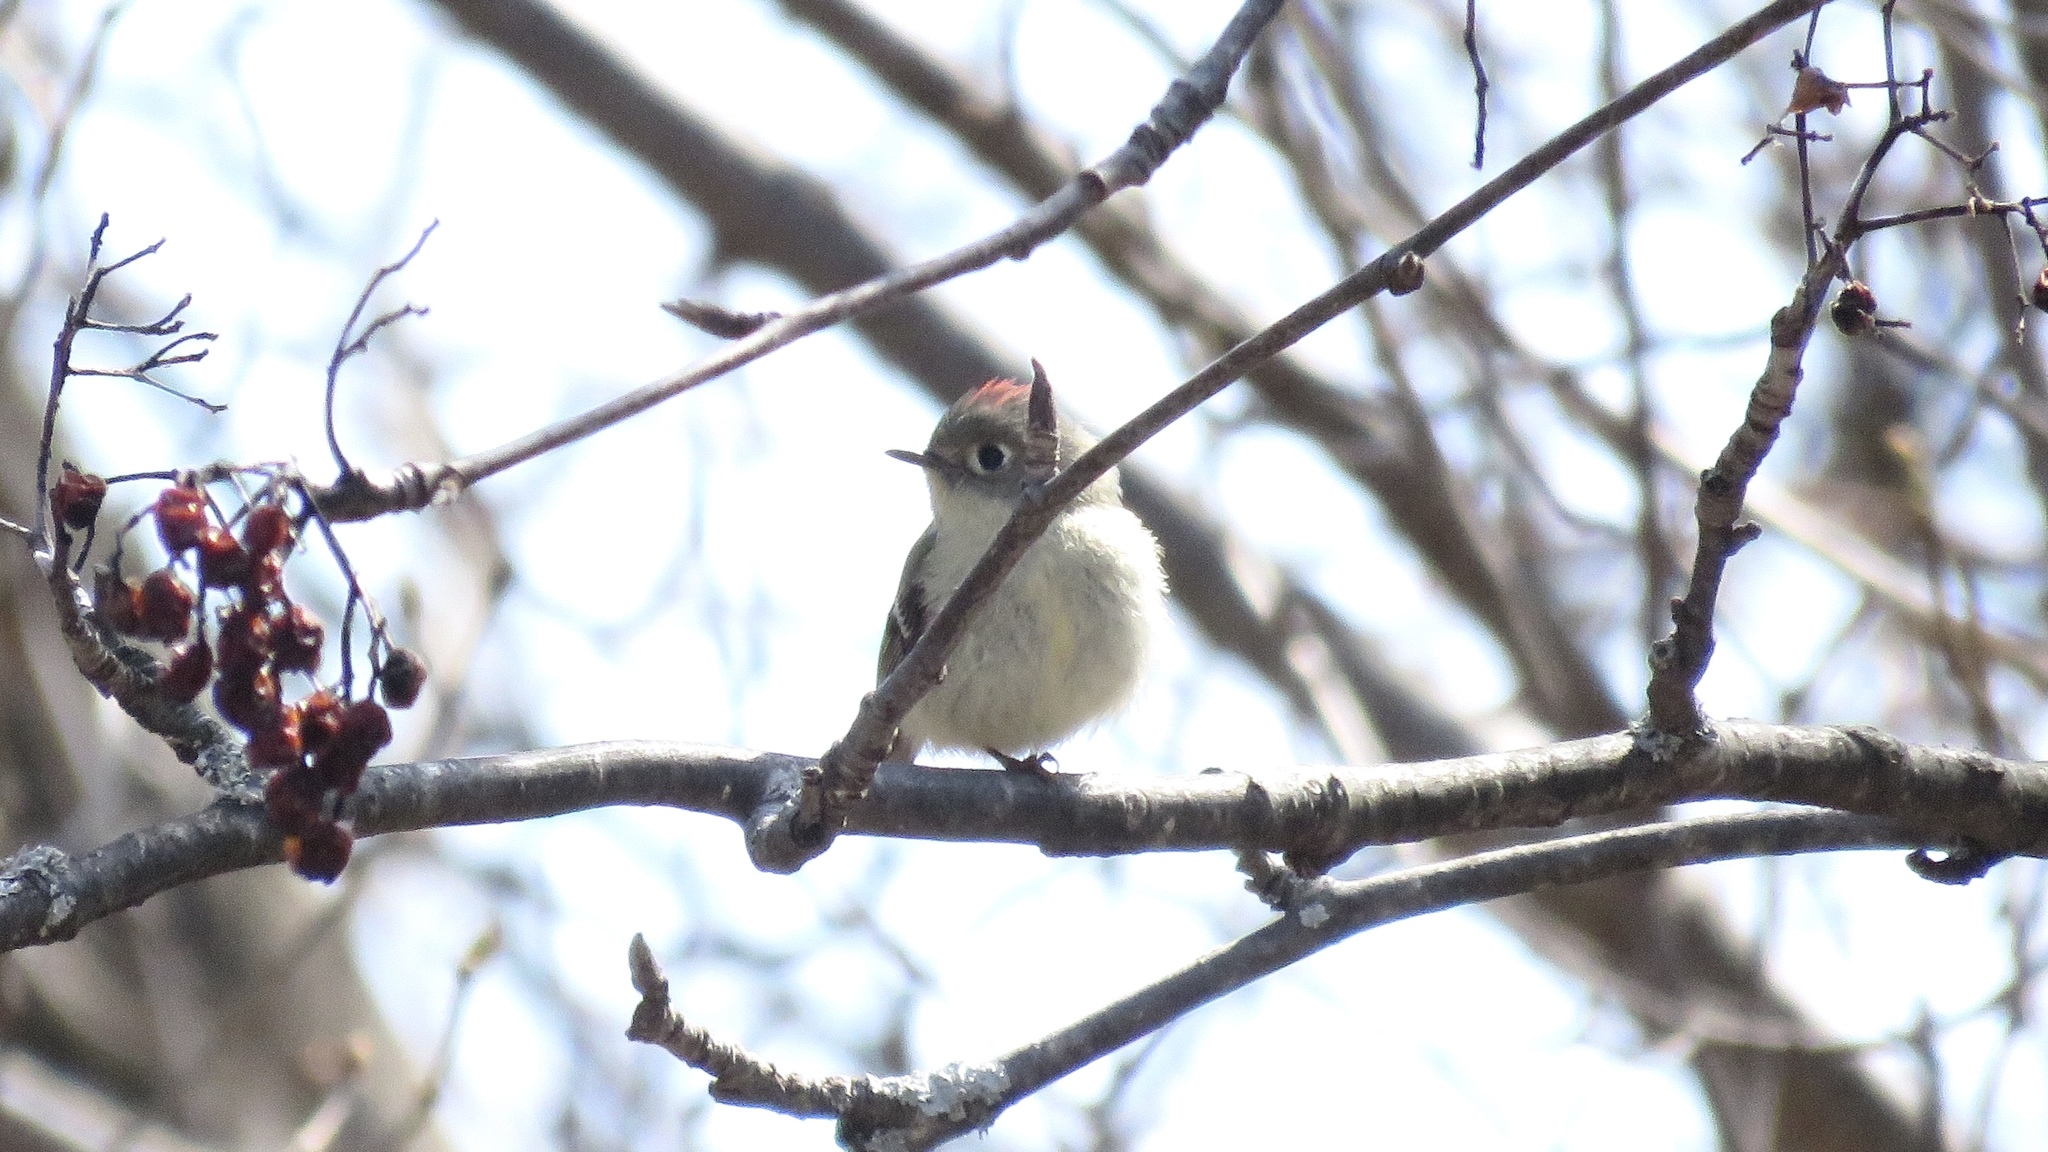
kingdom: Animalia
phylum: Chordata
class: Aves
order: Passeriformes
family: Regulidae
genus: Regulus
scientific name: Regulus calendula
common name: Ruby-crowned kinglet
